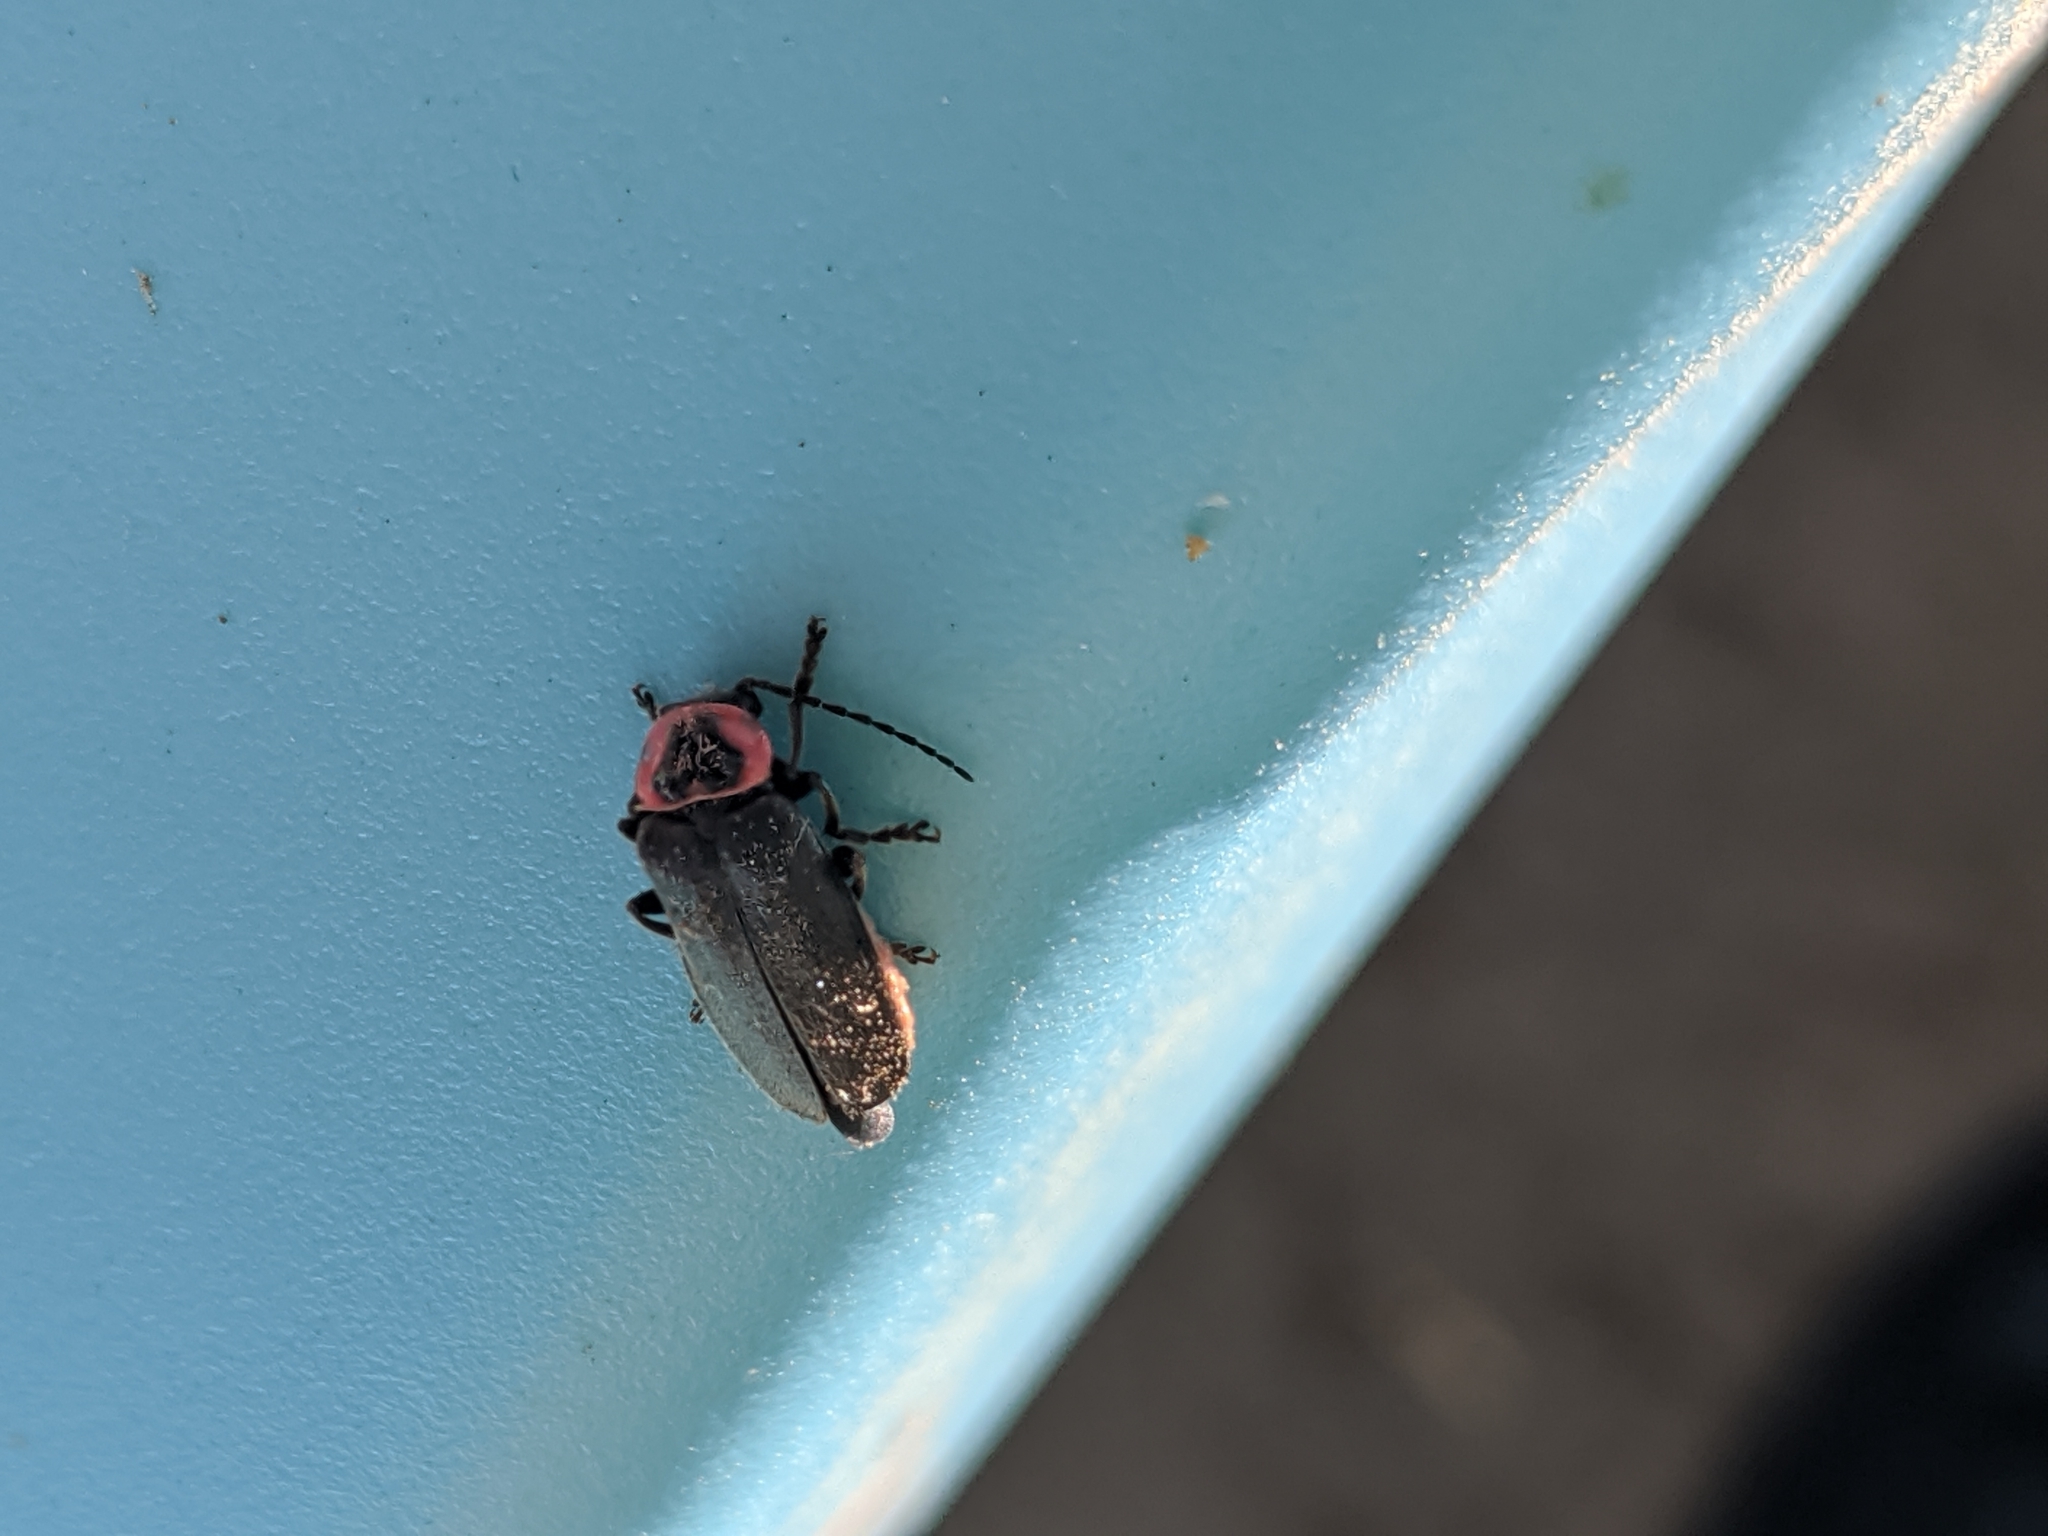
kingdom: Animalia
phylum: Arthropoda
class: Insecta
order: Coleoptera
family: Cantharidae
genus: Atalantycha
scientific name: Atalantycha neglecta
